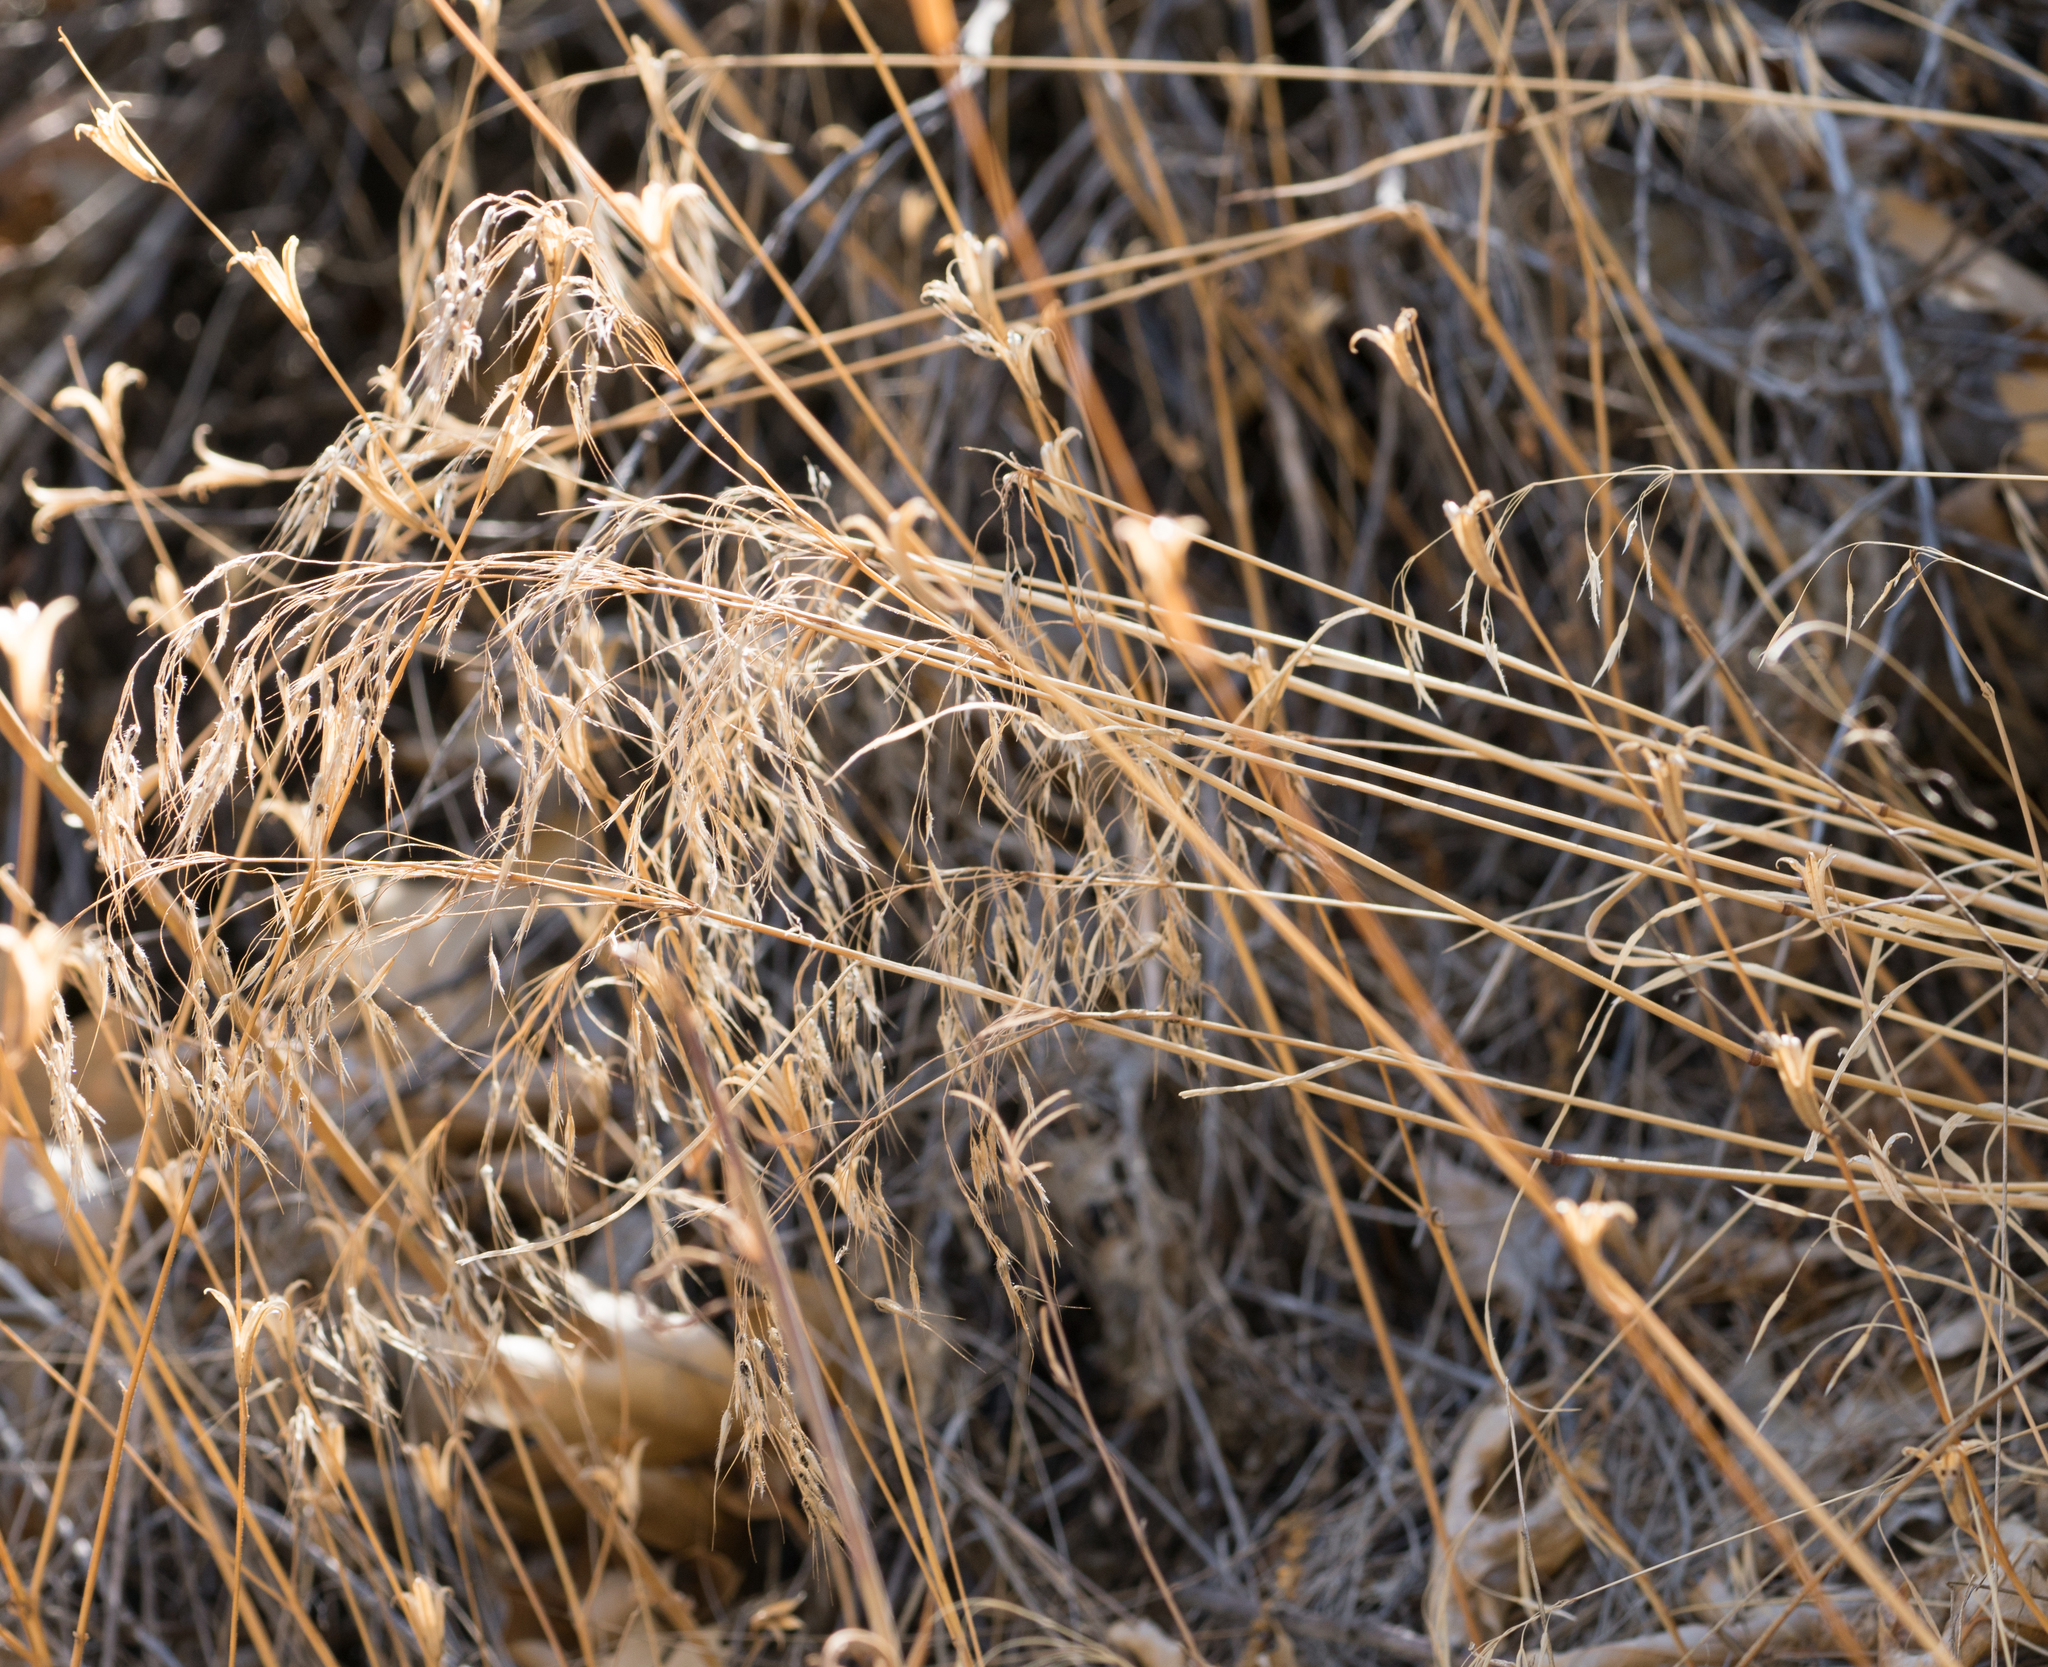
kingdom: Plantae
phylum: Tracheophyta
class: Liliopsida
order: Poales
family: Poaceae
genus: Bromus
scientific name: Bromus tectorum
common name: Cheatgrass
